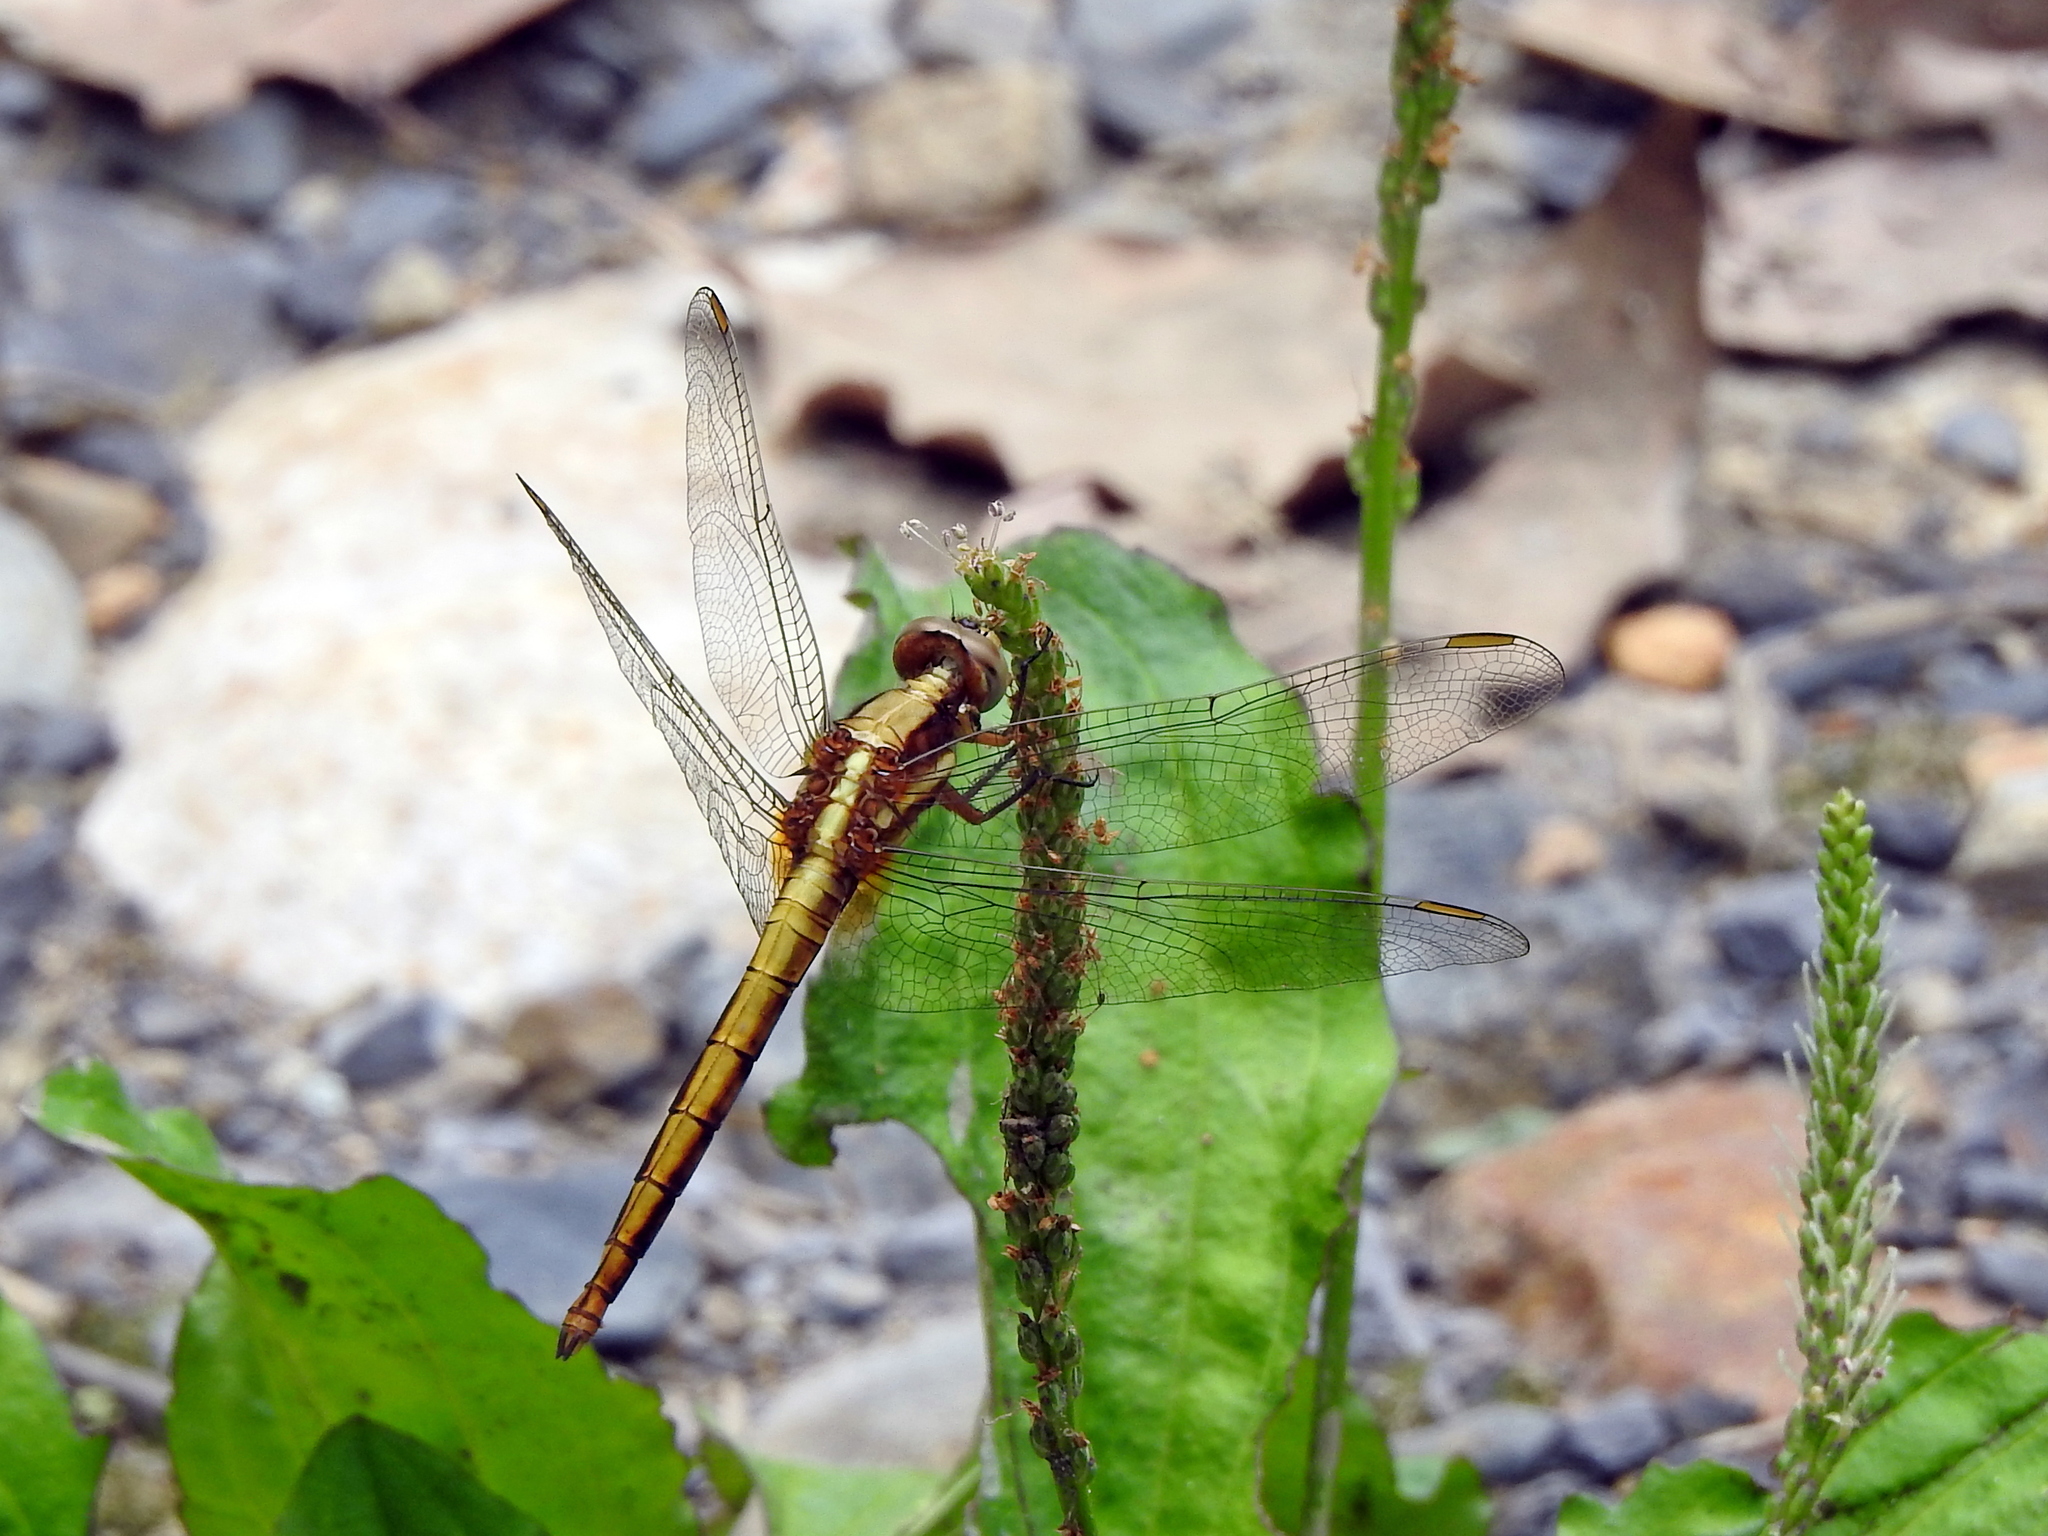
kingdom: Animalia
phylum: Arthropoda
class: Insecta
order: Odonata
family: Libellulidae
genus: Orthetrum
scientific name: Orthetrum glaucum
